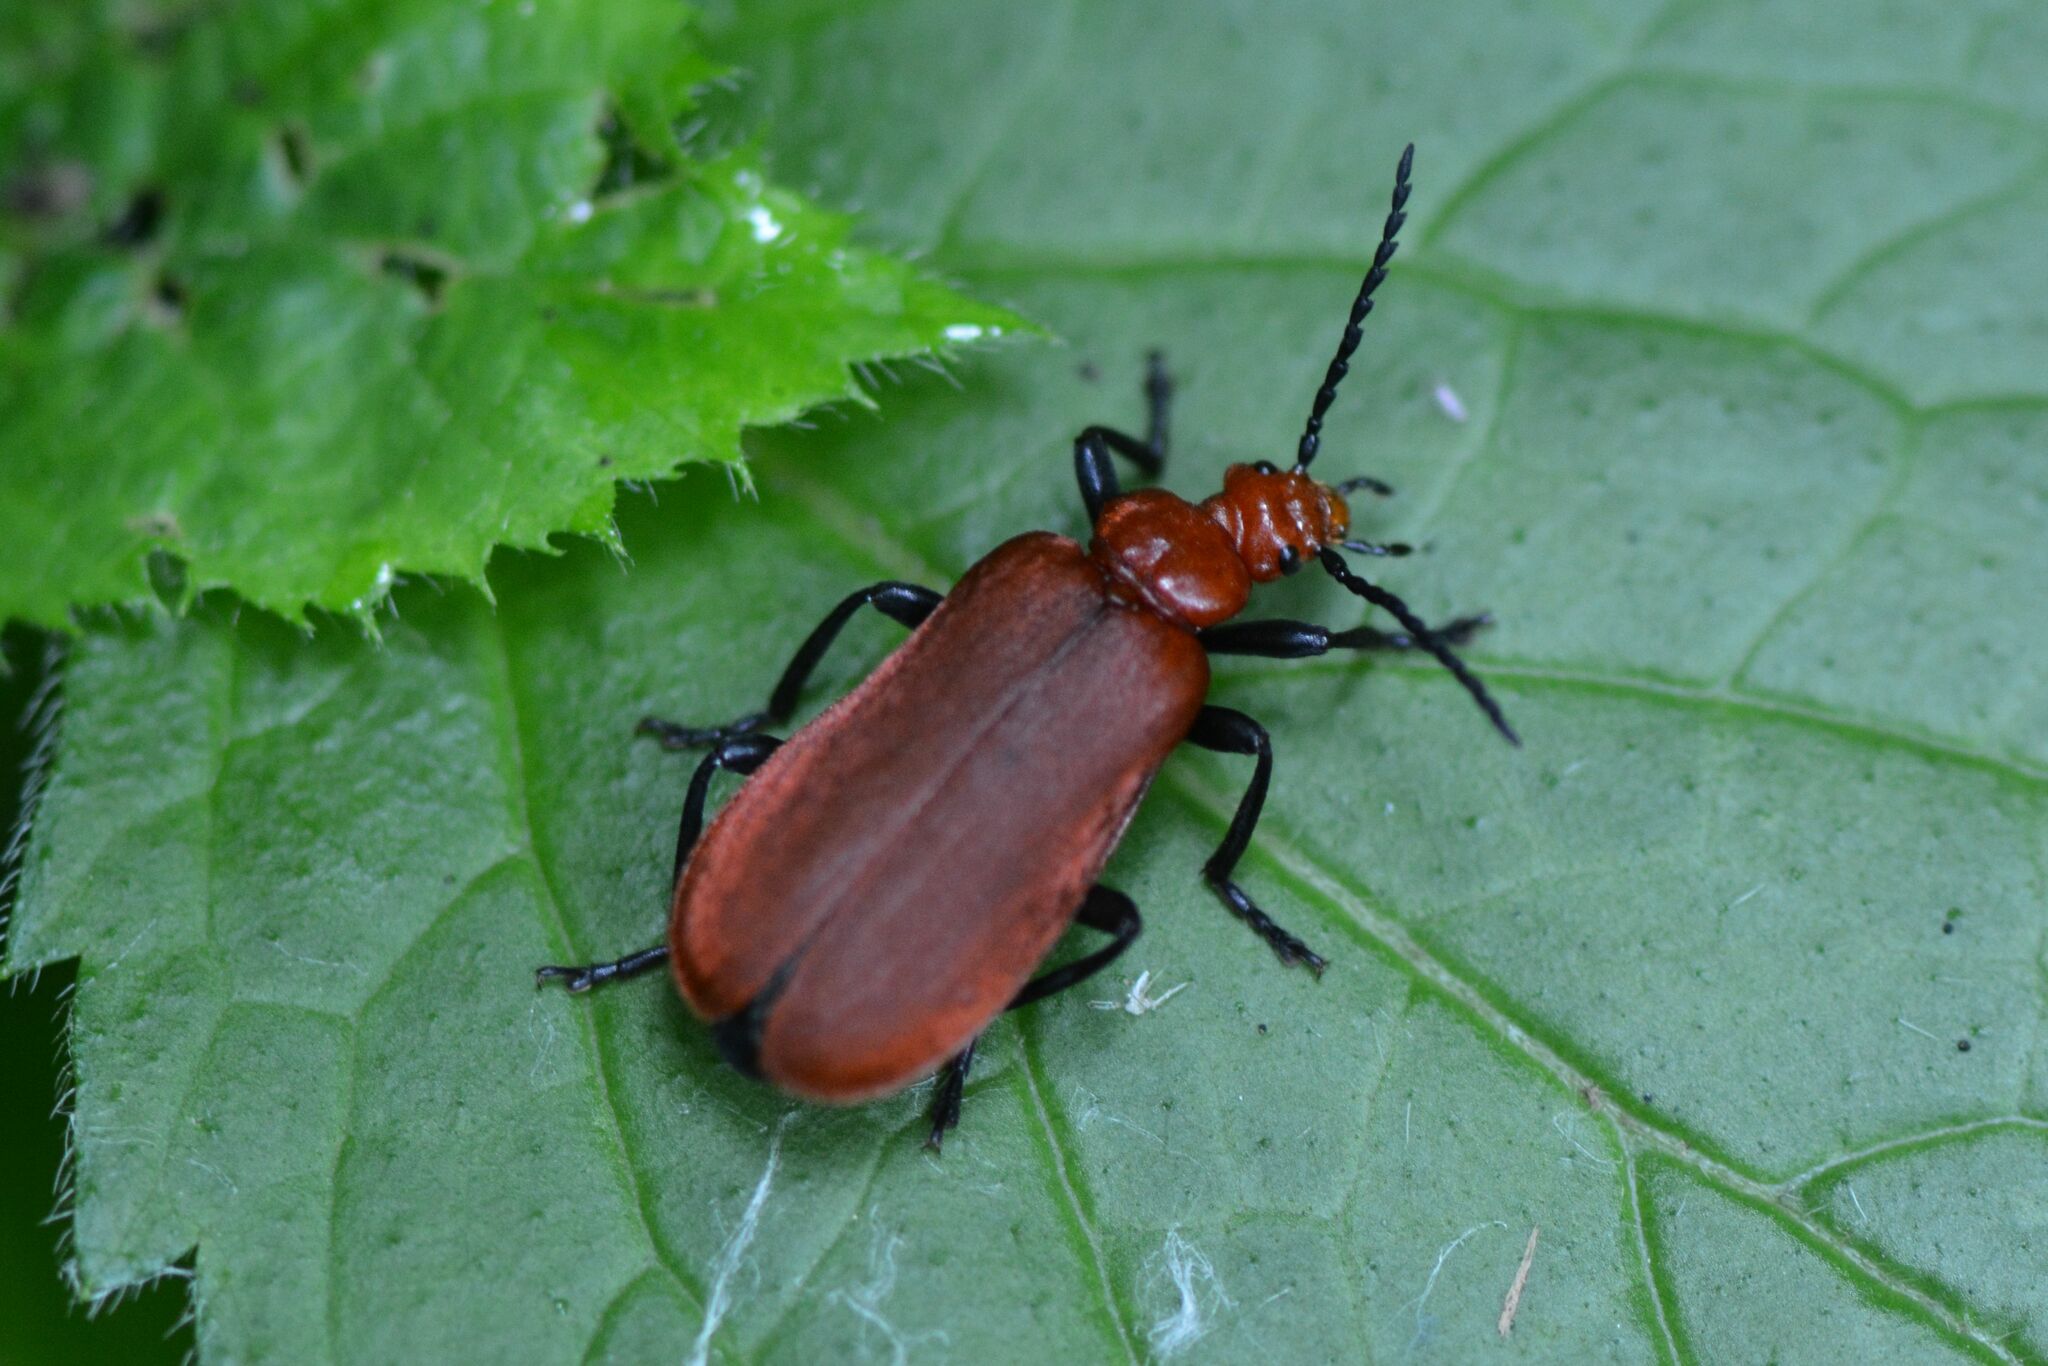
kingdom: Animalia
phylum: Arthropoda
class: Insecta
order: Coleoptera
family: Pyrochroidae
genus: Pyrochroa
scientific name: Pyrochroa serraticornis
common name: Red-headed cardinal beetle
